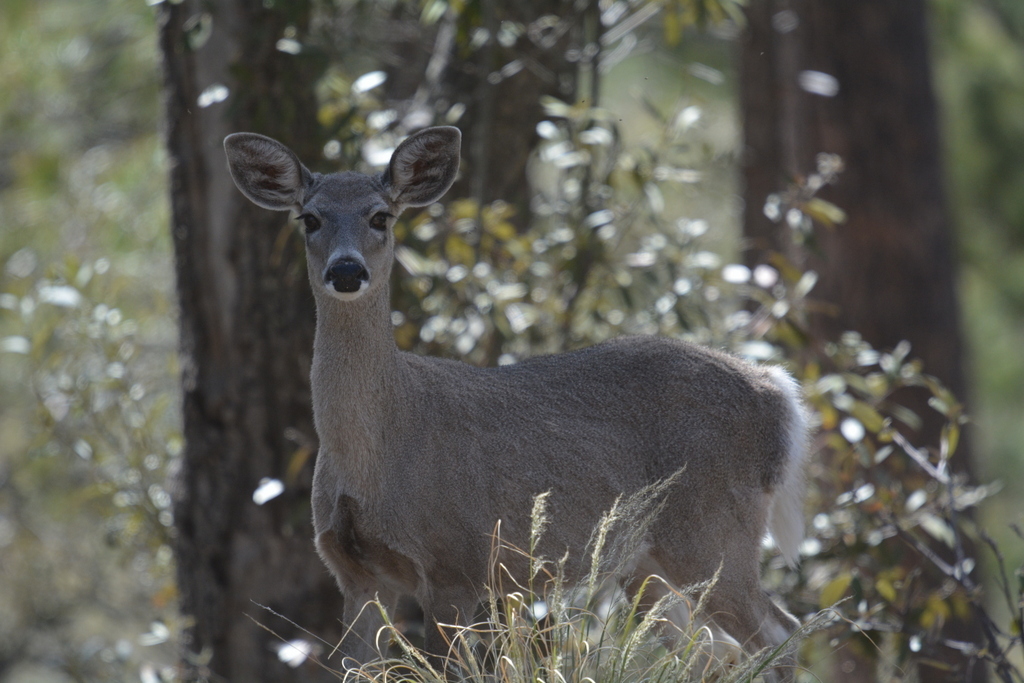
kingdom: Animalia
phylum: Chordata
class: Mammalia
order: Artiodactyla
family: Cervidae
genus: Odocoileus
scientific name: Odocoileus virginianus
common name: White-tailed deer
